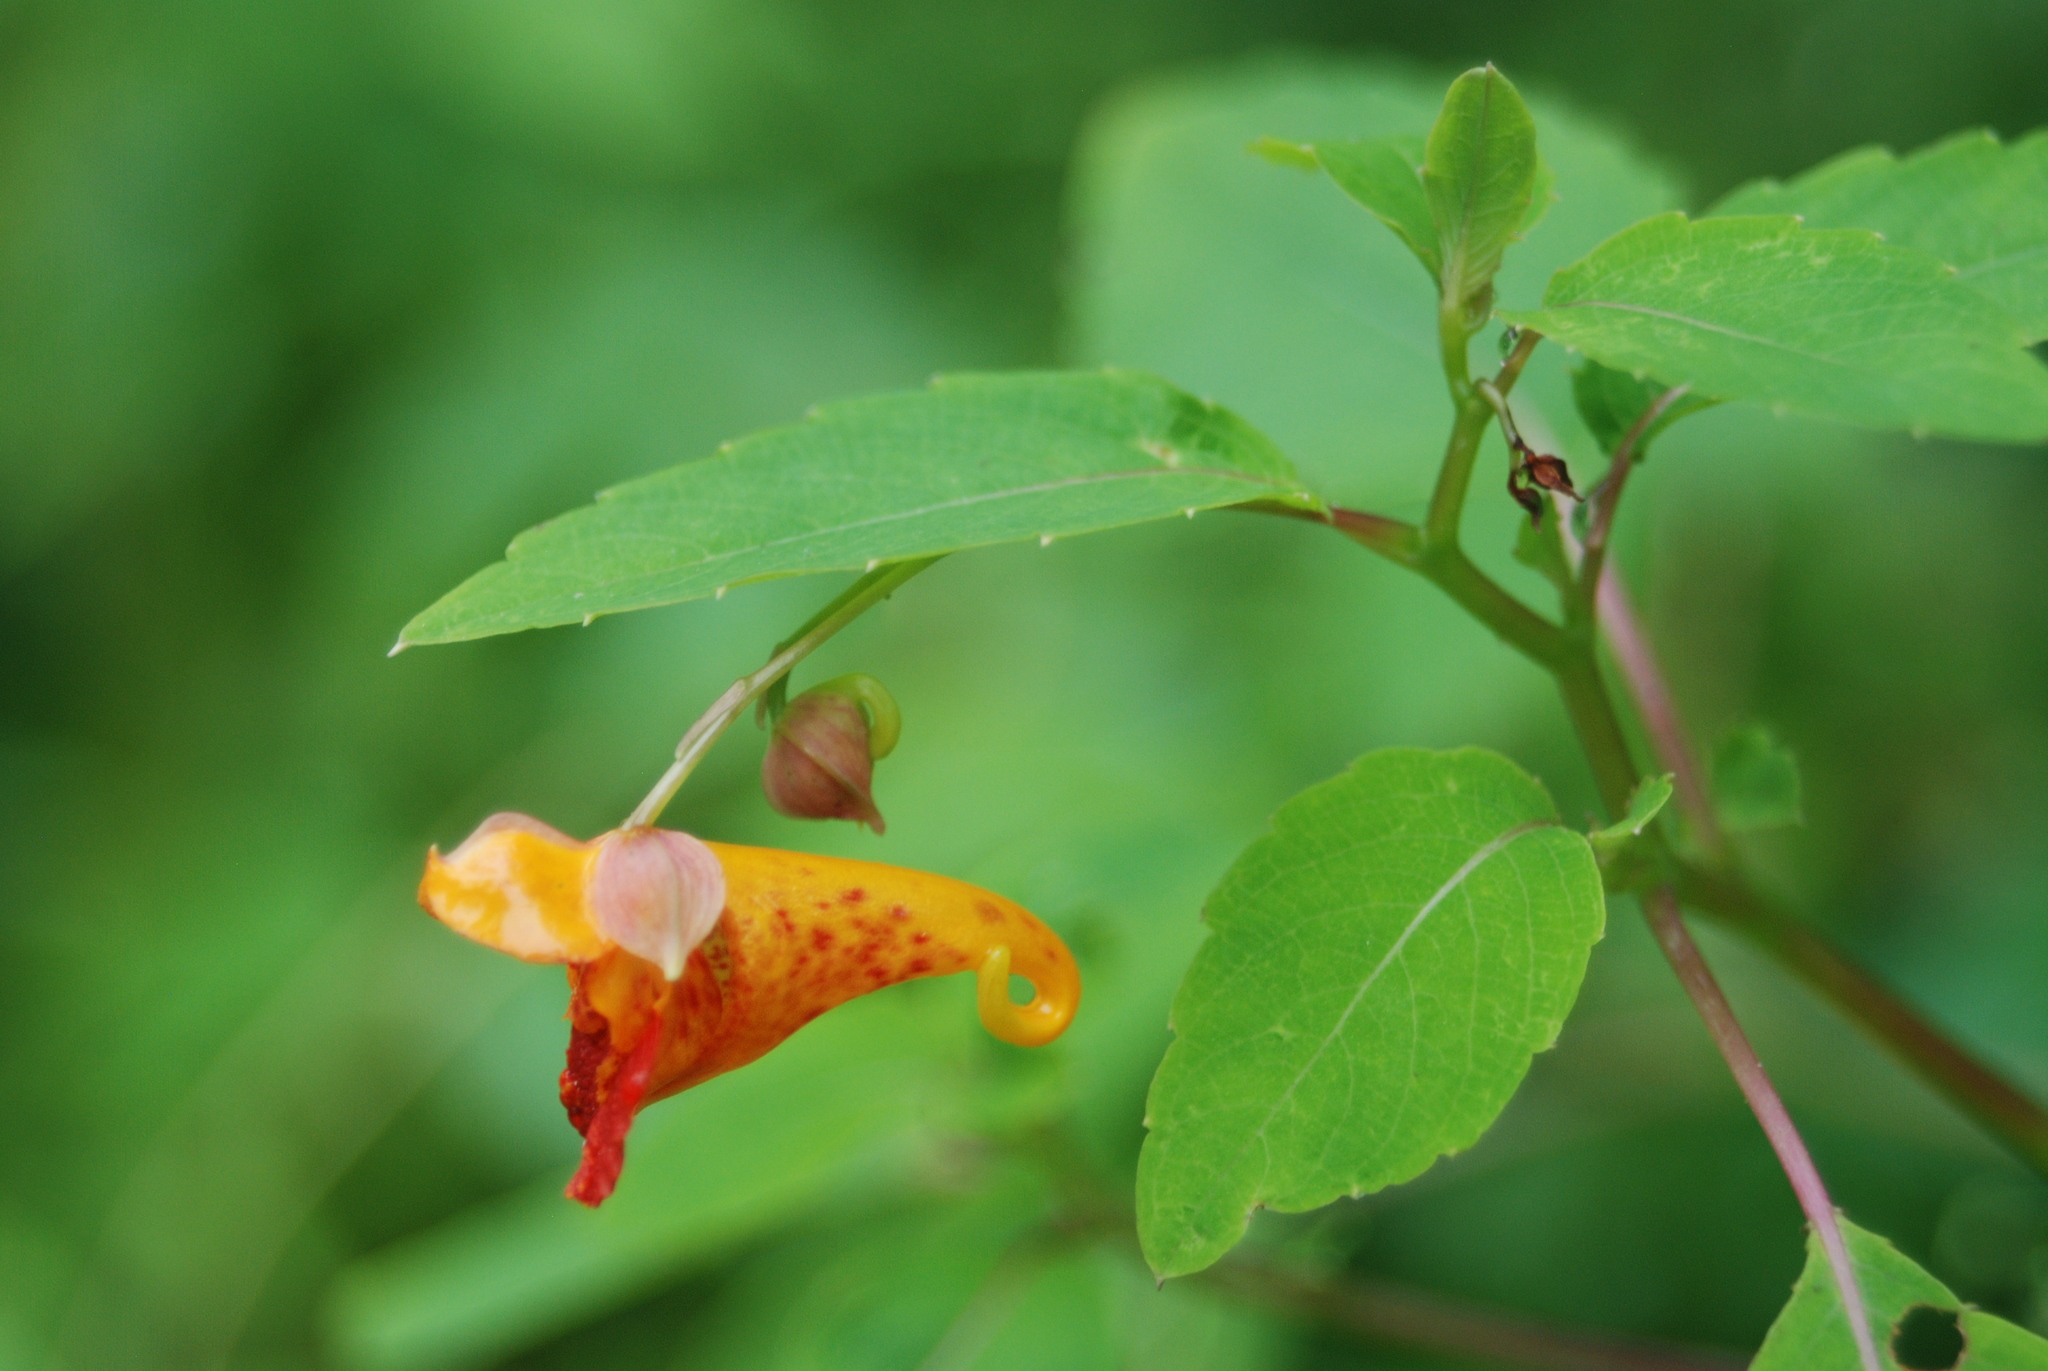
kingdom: Plantae
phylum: Tracheophyta
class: Magnoliopsida
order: Ericales
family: Balsaminaceae
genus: Impatiens
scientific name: Impatiens capensis
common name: Orange balsam
